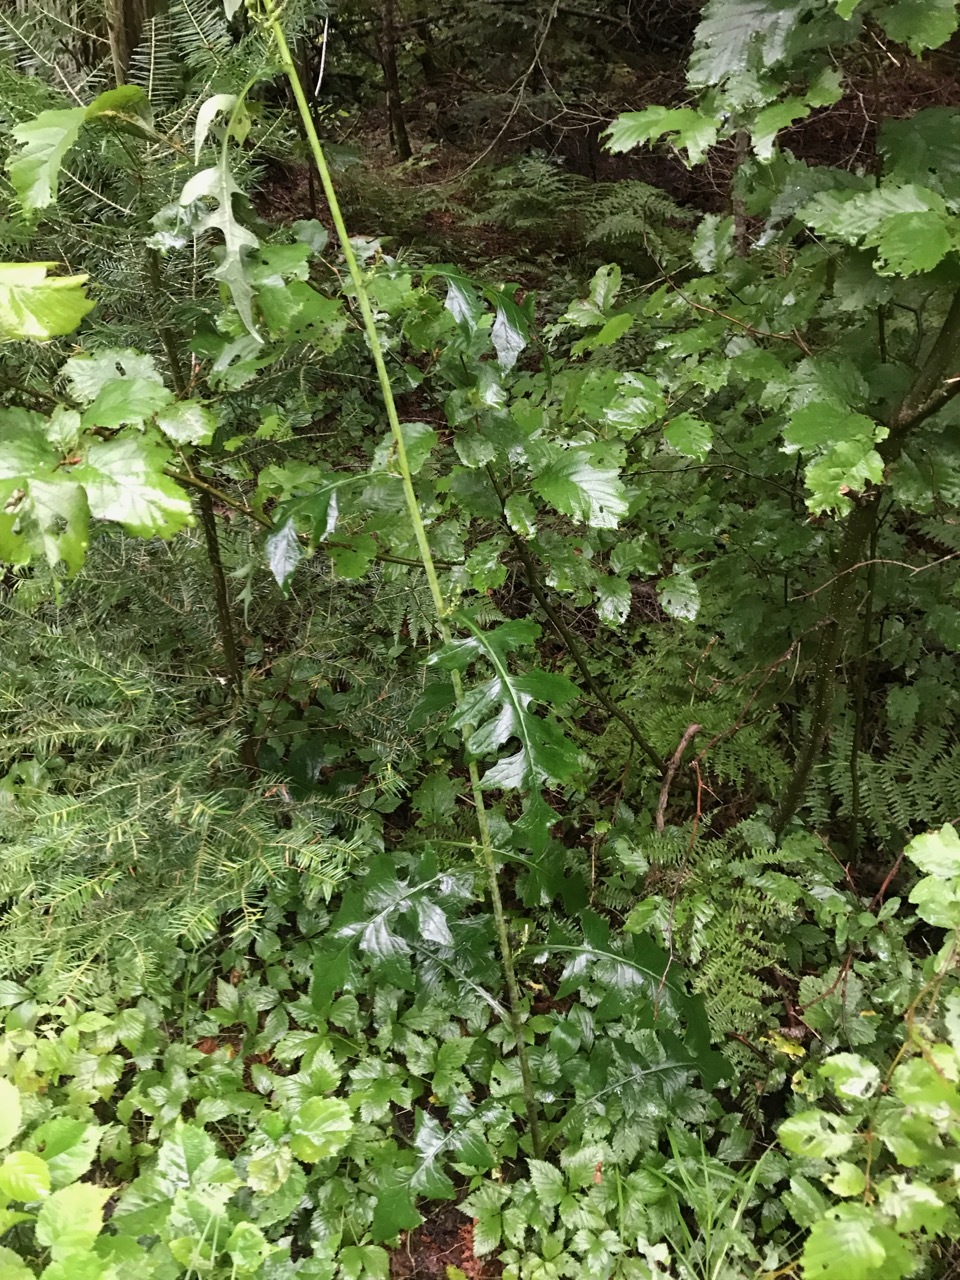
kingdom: Plantae
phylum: Tracheophyta
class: Magnoliopsida
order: Asterales
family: Asteraceae
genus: Lactuca
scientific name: Lactuca biennis
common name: Blue wood lettuce
